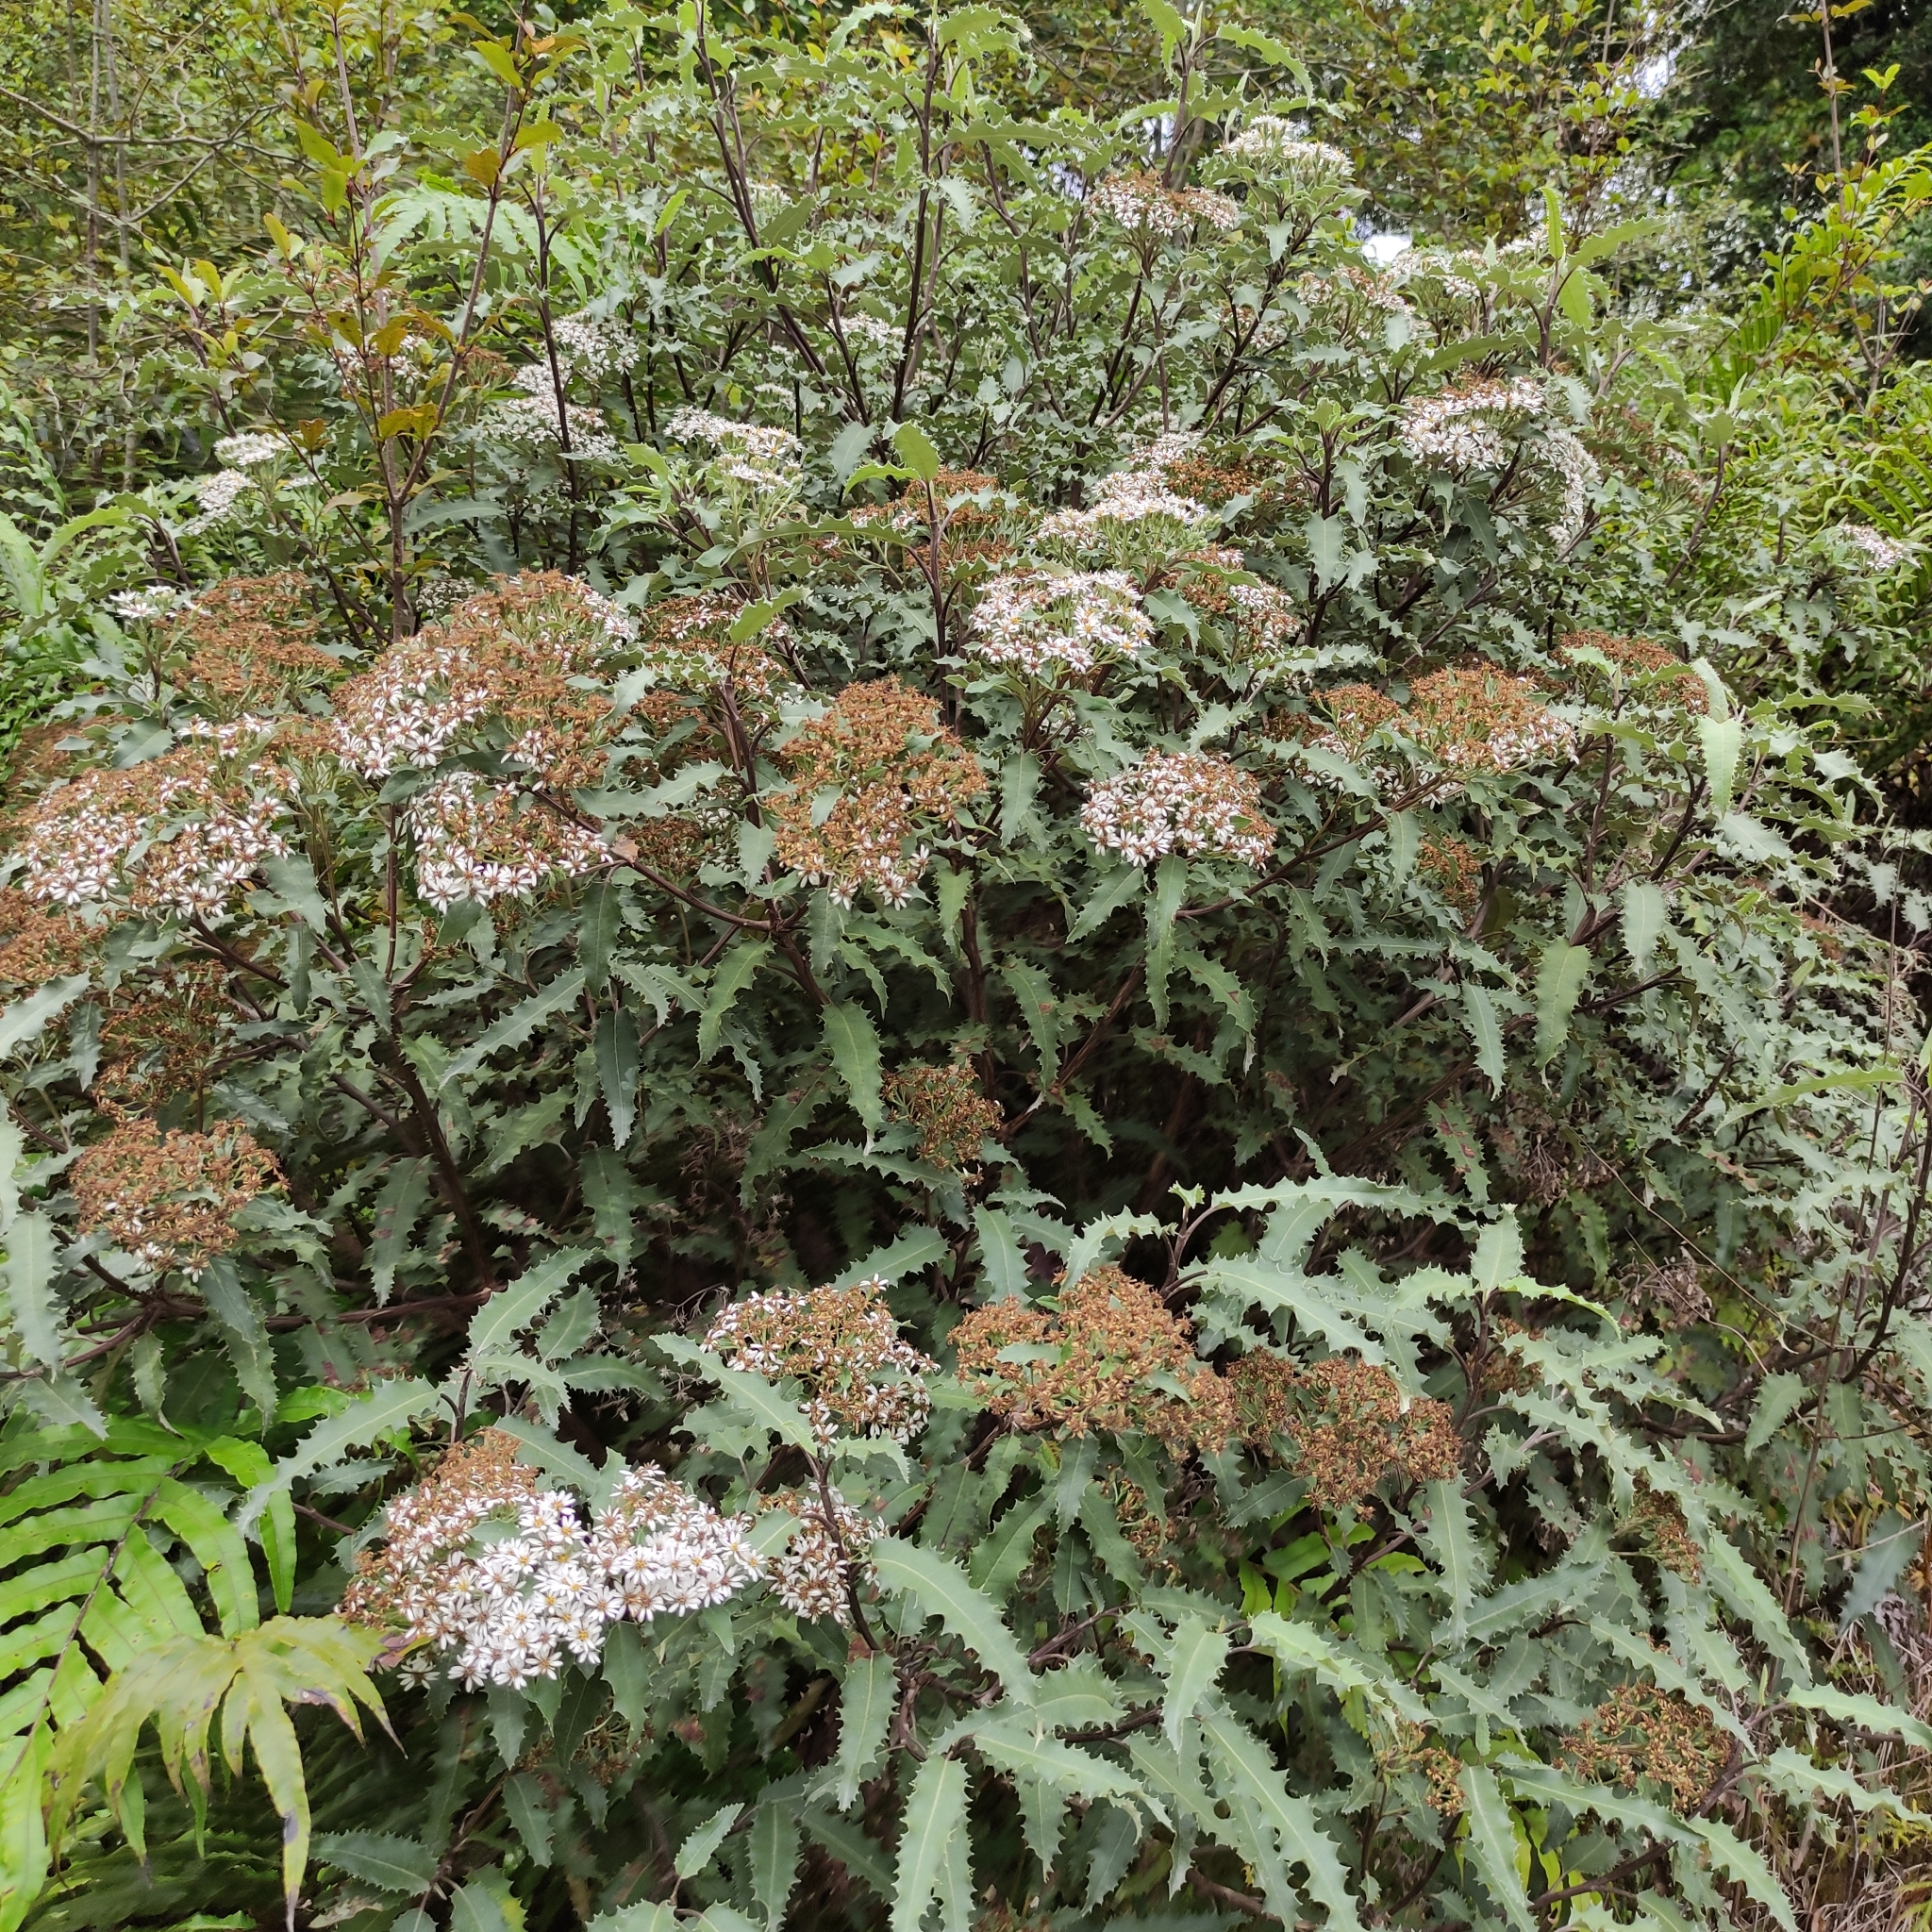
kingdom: Plantae
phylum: Tracheophyta
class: Magnoliopsida
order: Asterales
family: Asteraceae
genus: Olearia
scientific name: Olearia ilicifolia
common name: Maori-holly
